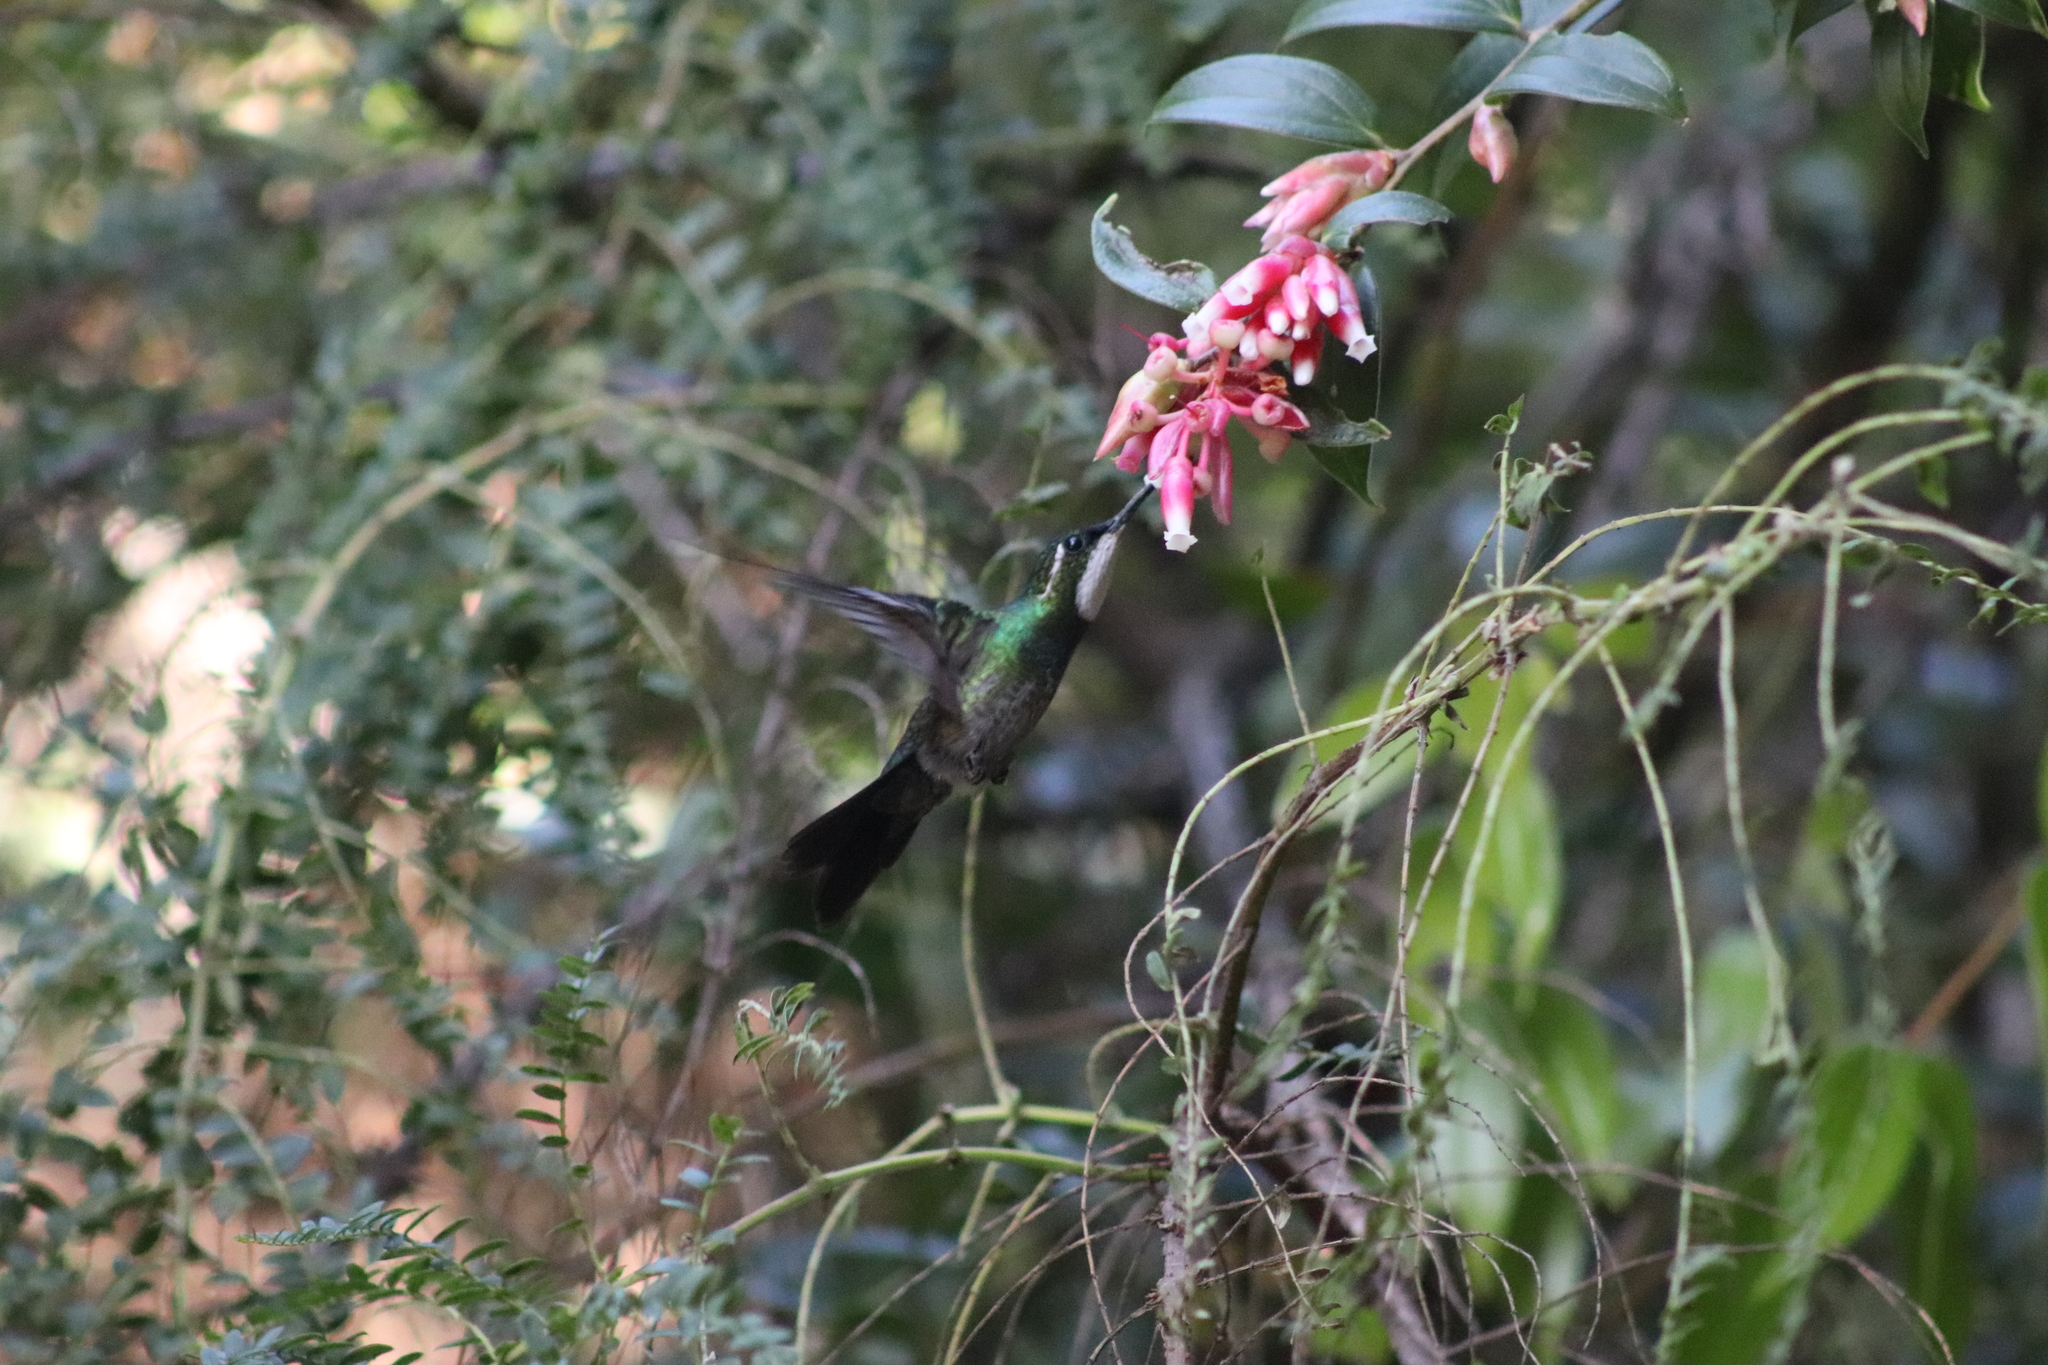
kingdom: Animalia
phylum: Chordata
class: Aves
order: Apodiformes
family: Trochilidae
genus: Lampornis
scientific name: Lampornis castaneoventris
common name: White-throated mountain-gem
